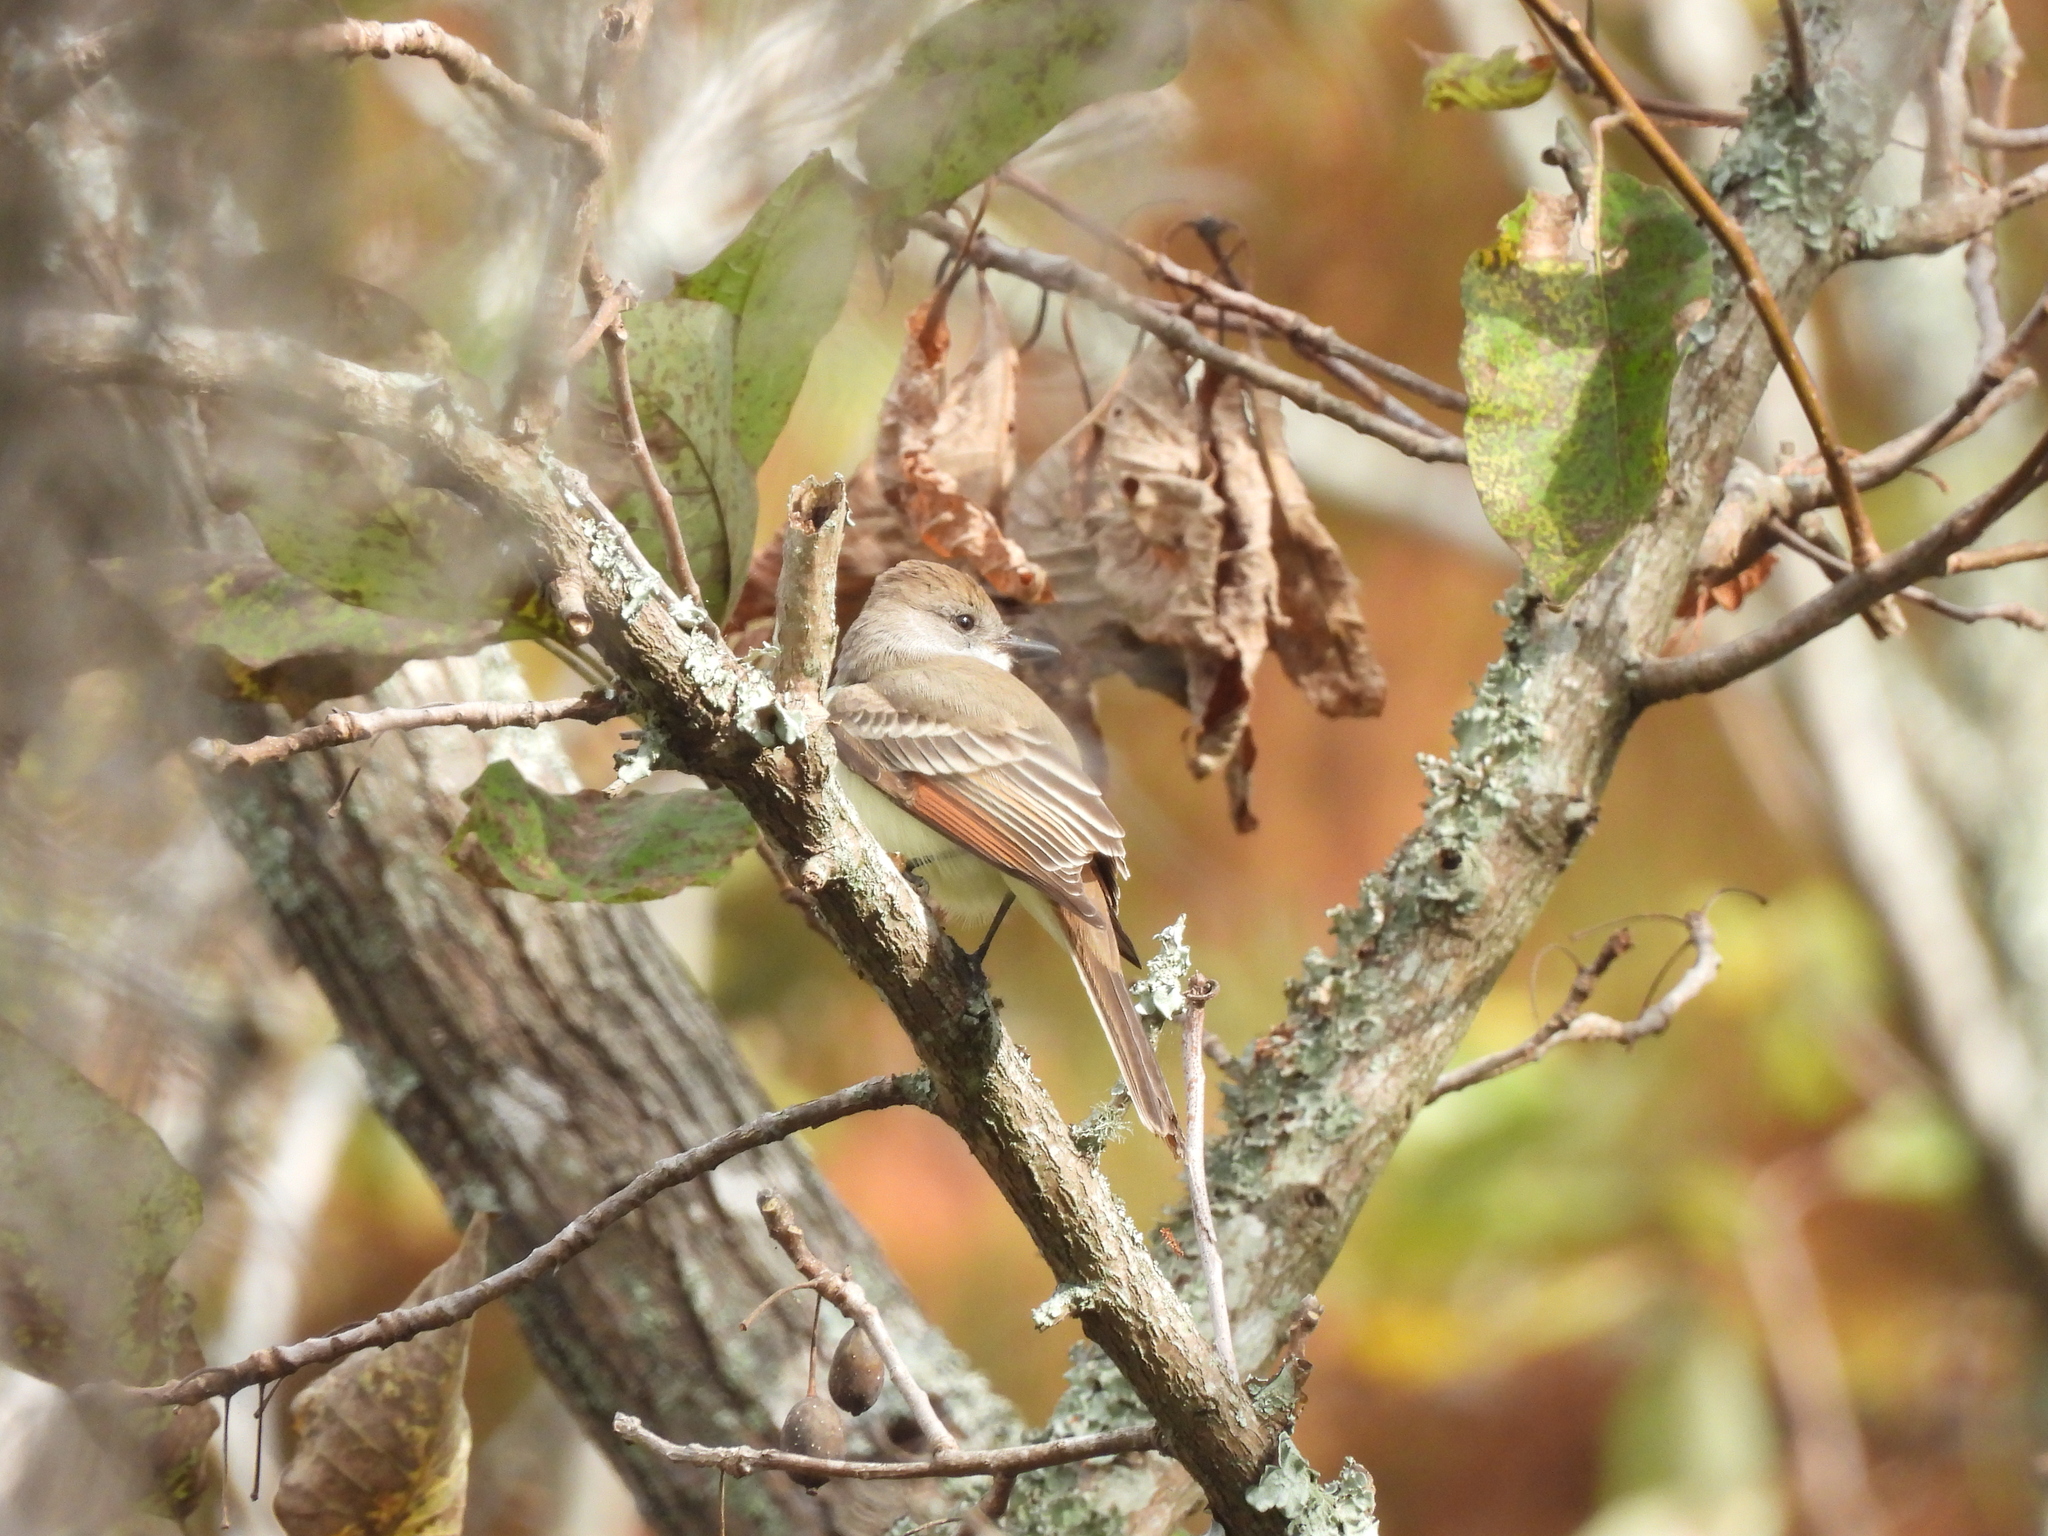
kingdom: Animalia
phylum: Chordata
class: Aves
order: Passeriformes
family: Tyrannidae
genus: Myiarchus
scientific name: Myiarchus cinerascens
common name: Ash-throated flycatcher
